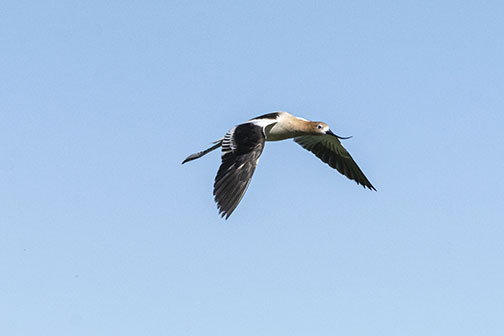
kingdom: Animalia
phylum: Chordata
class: Aves
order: Charadriiformes
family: Recurvirostridae
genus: Recurvirostra
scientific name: Recurvirostra americana
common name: American avocet
